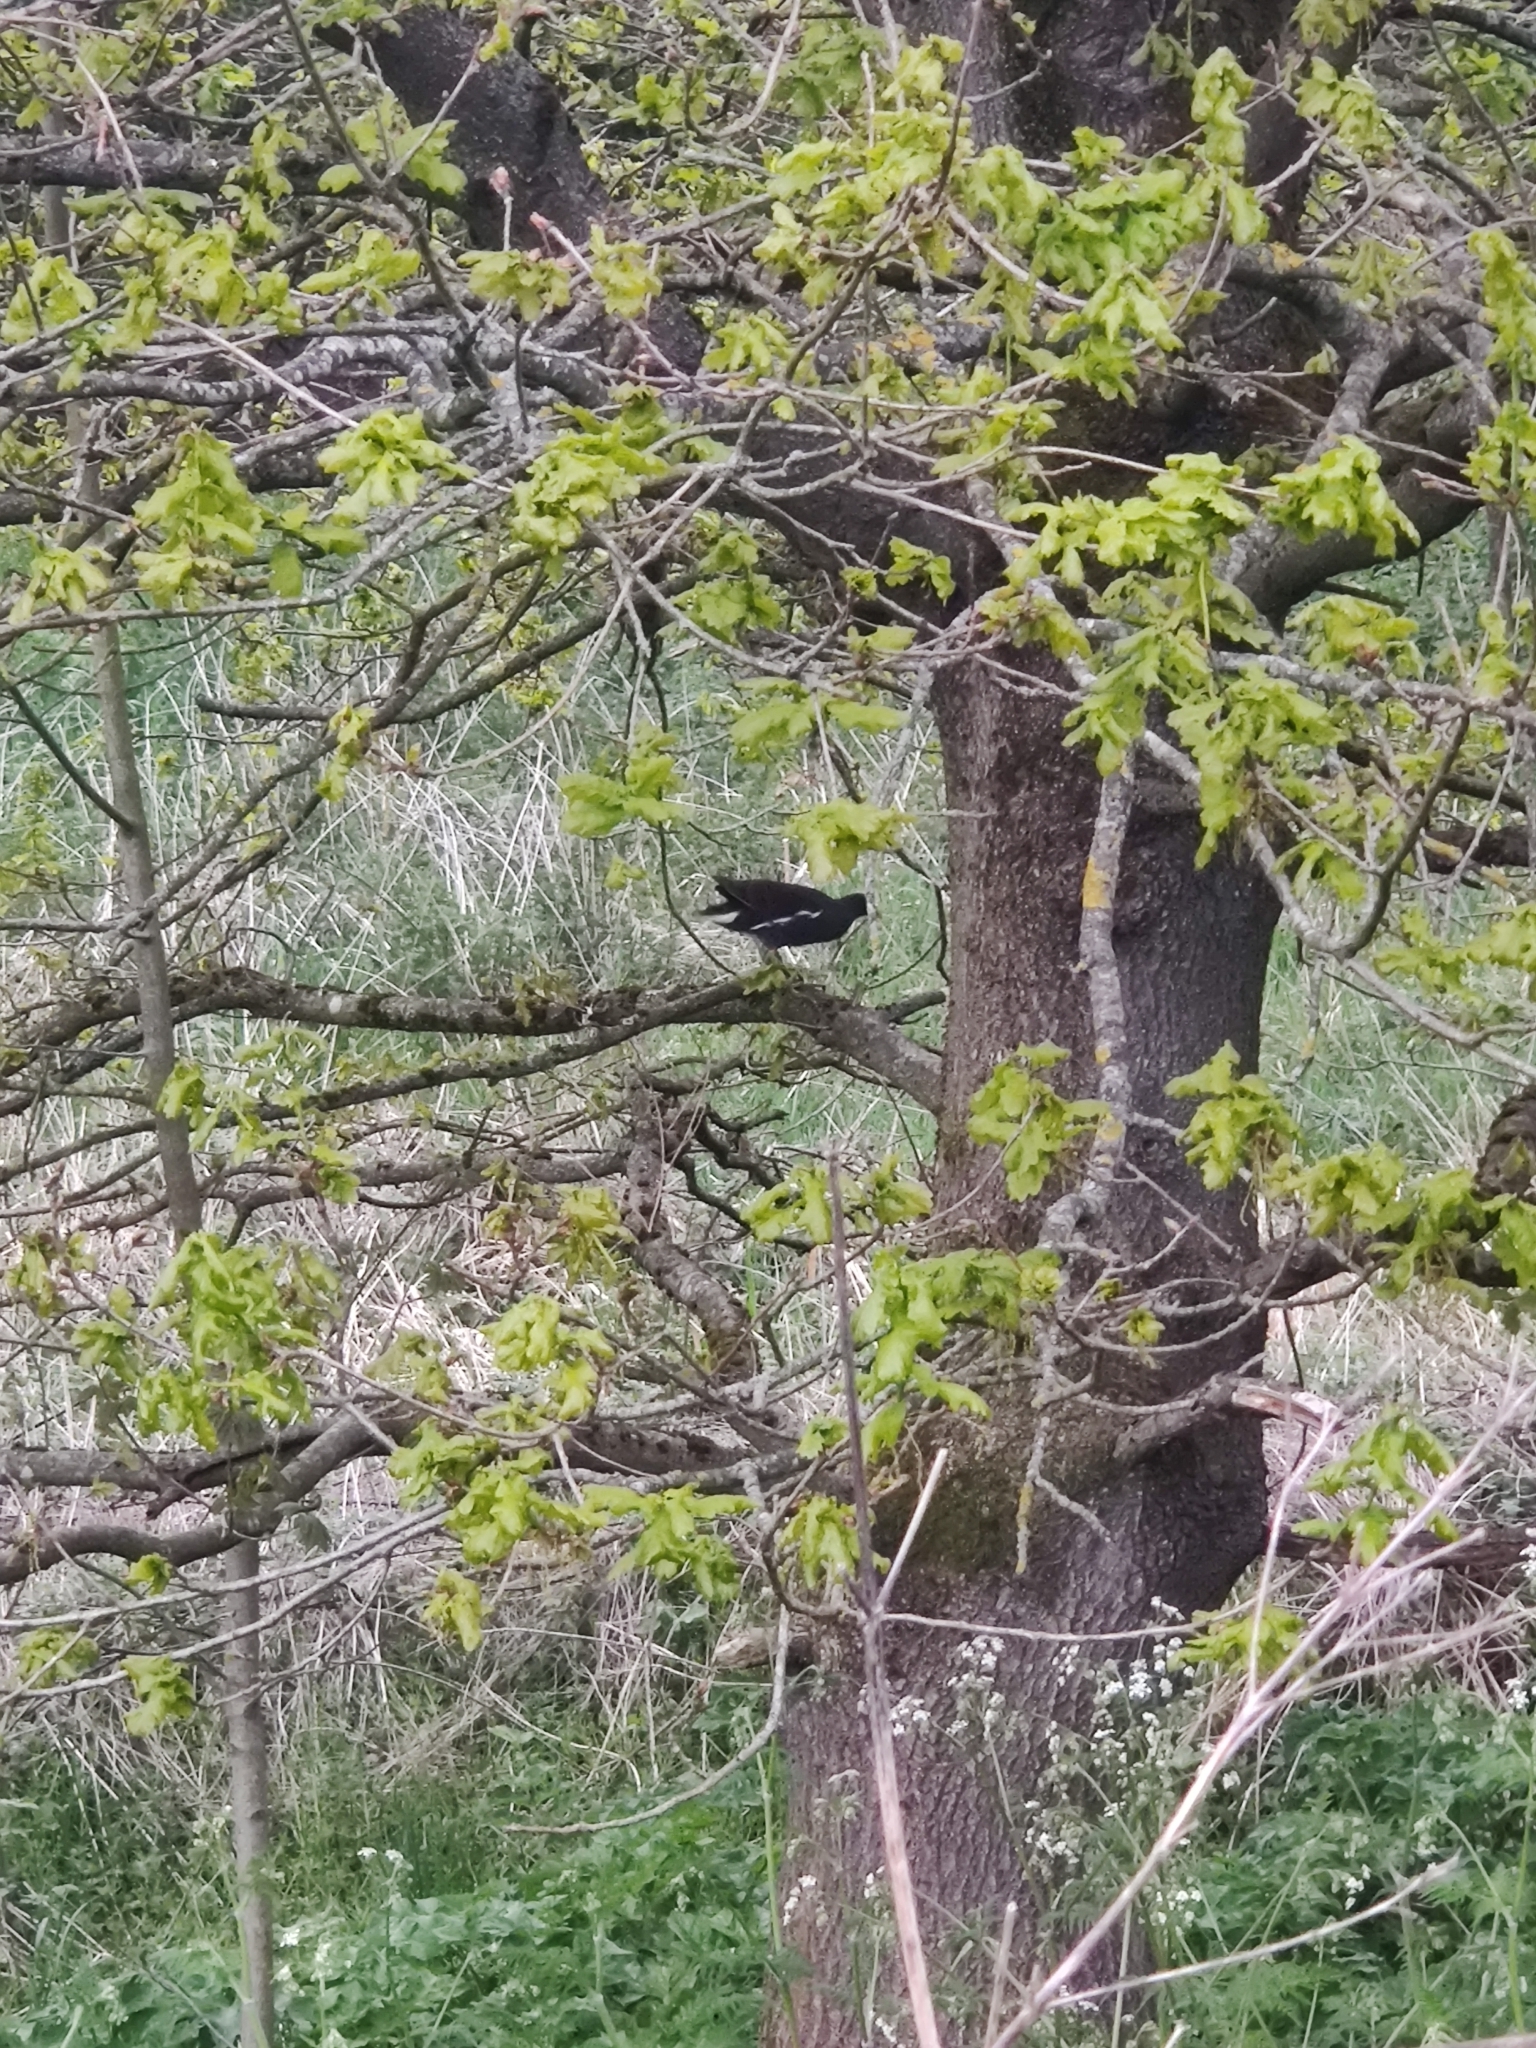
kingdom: Animalia
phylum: Chordata
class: Aves
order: Gruiformes
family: Rallidae
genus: Gallinula
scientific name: Gallinula chloropus
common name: Common moorhen
